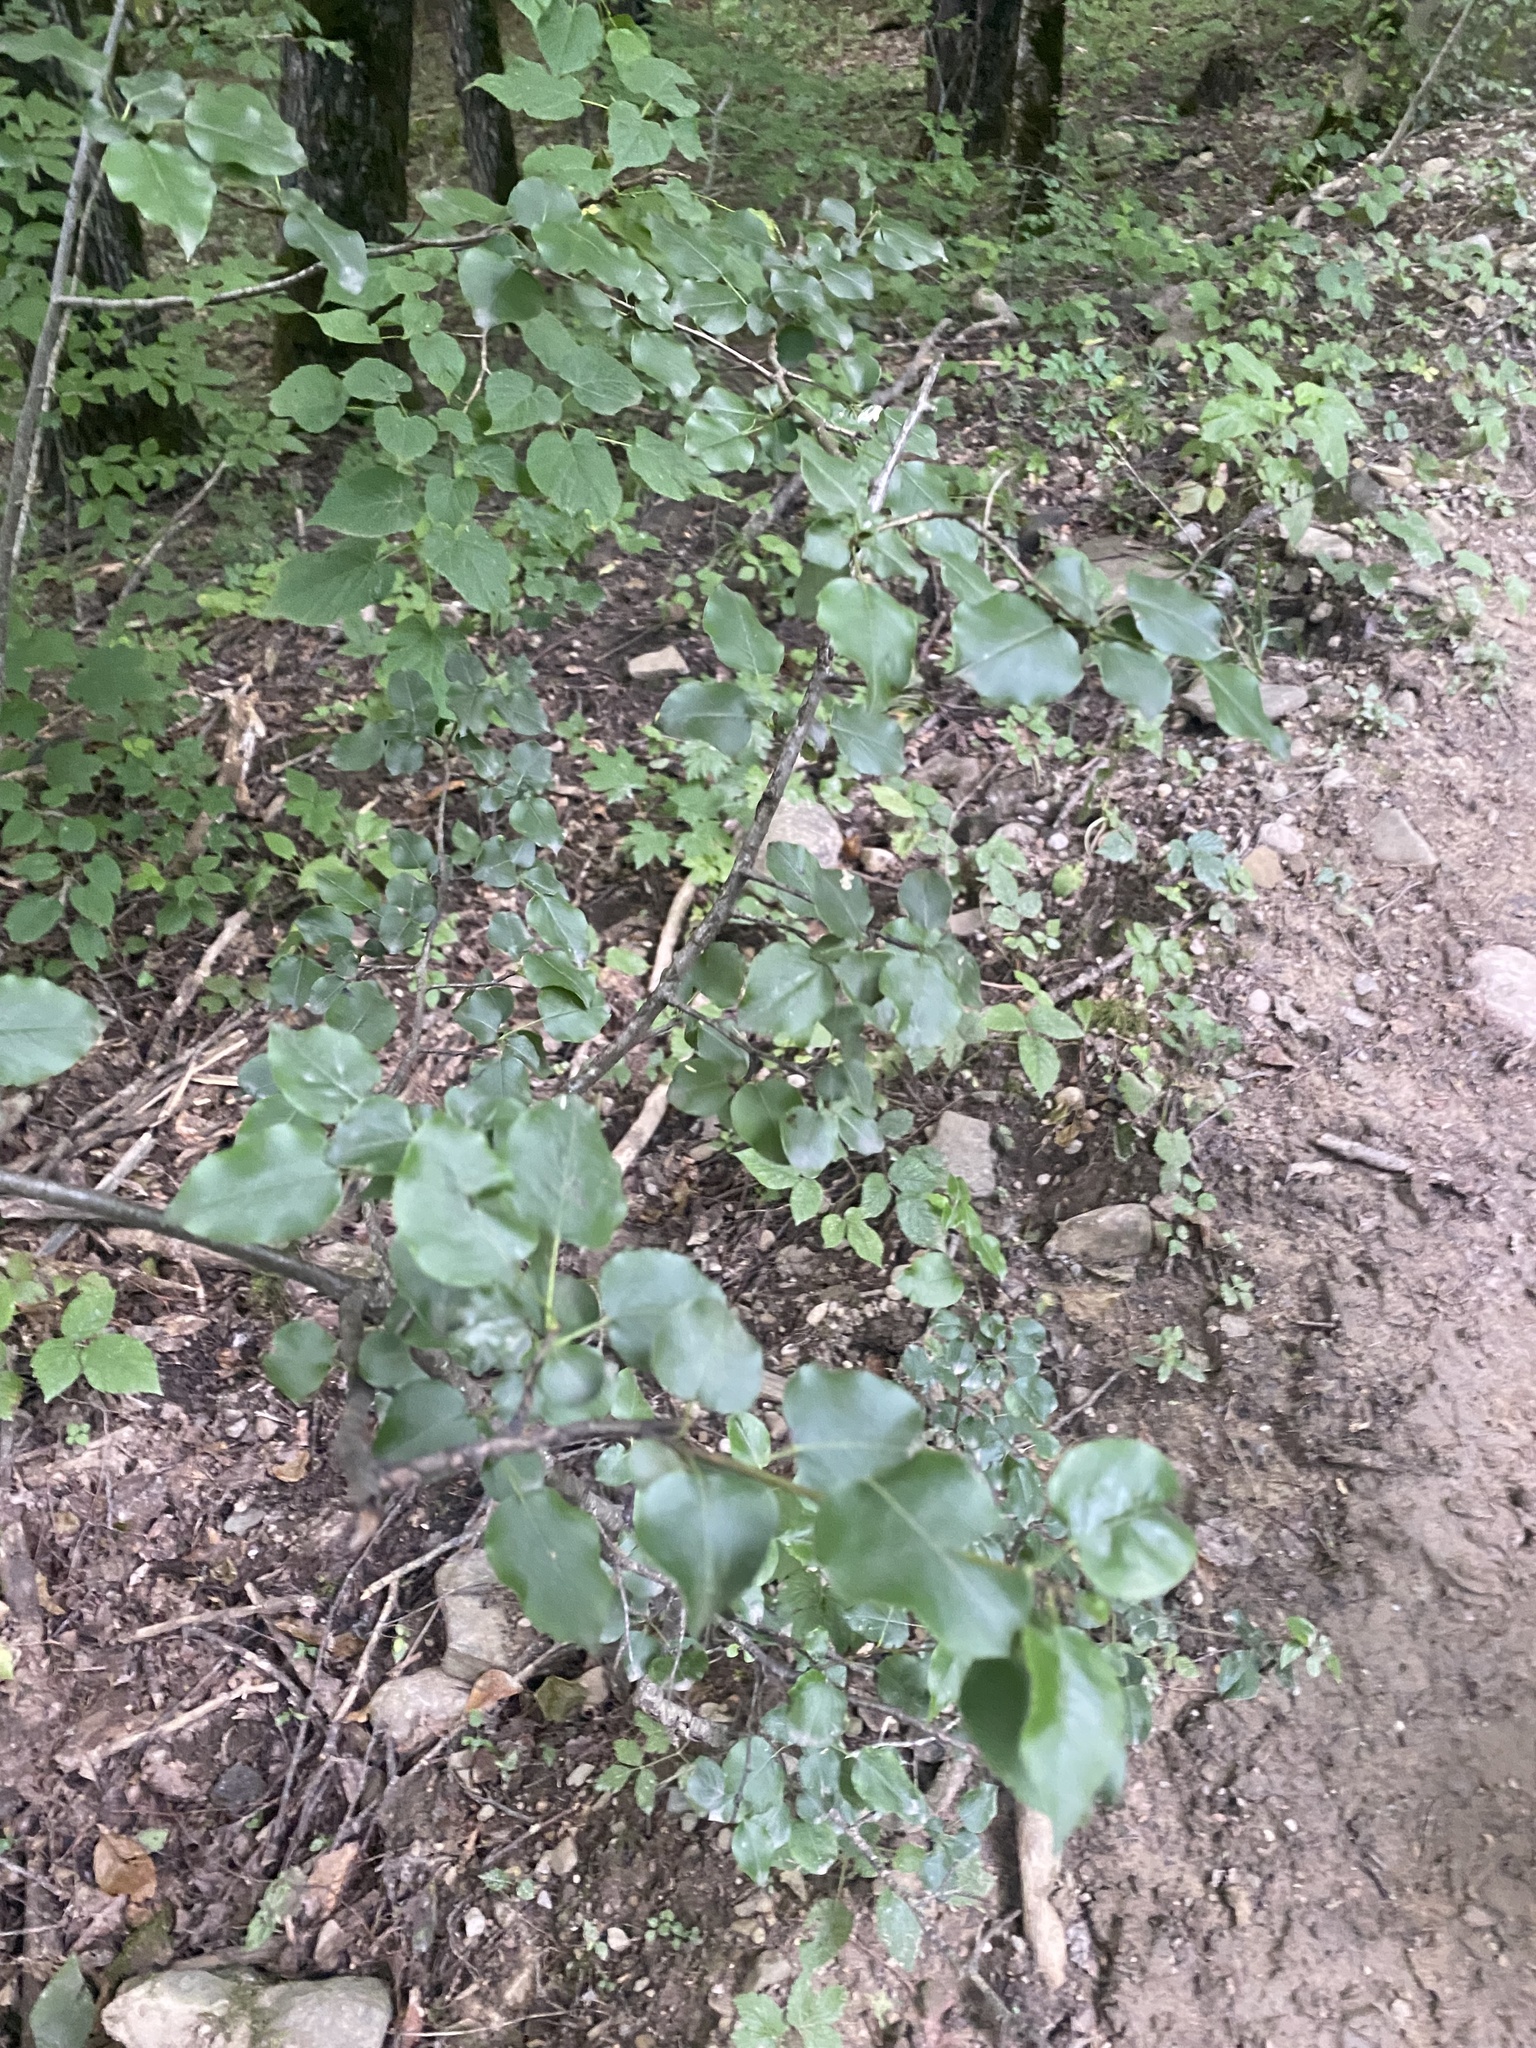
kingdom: Plantae
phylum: Tracheophyta
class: Magnoliopsida
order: Rosales
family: Rosaceae
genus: Pyrus
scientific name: Pyrus communis
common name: Pear
